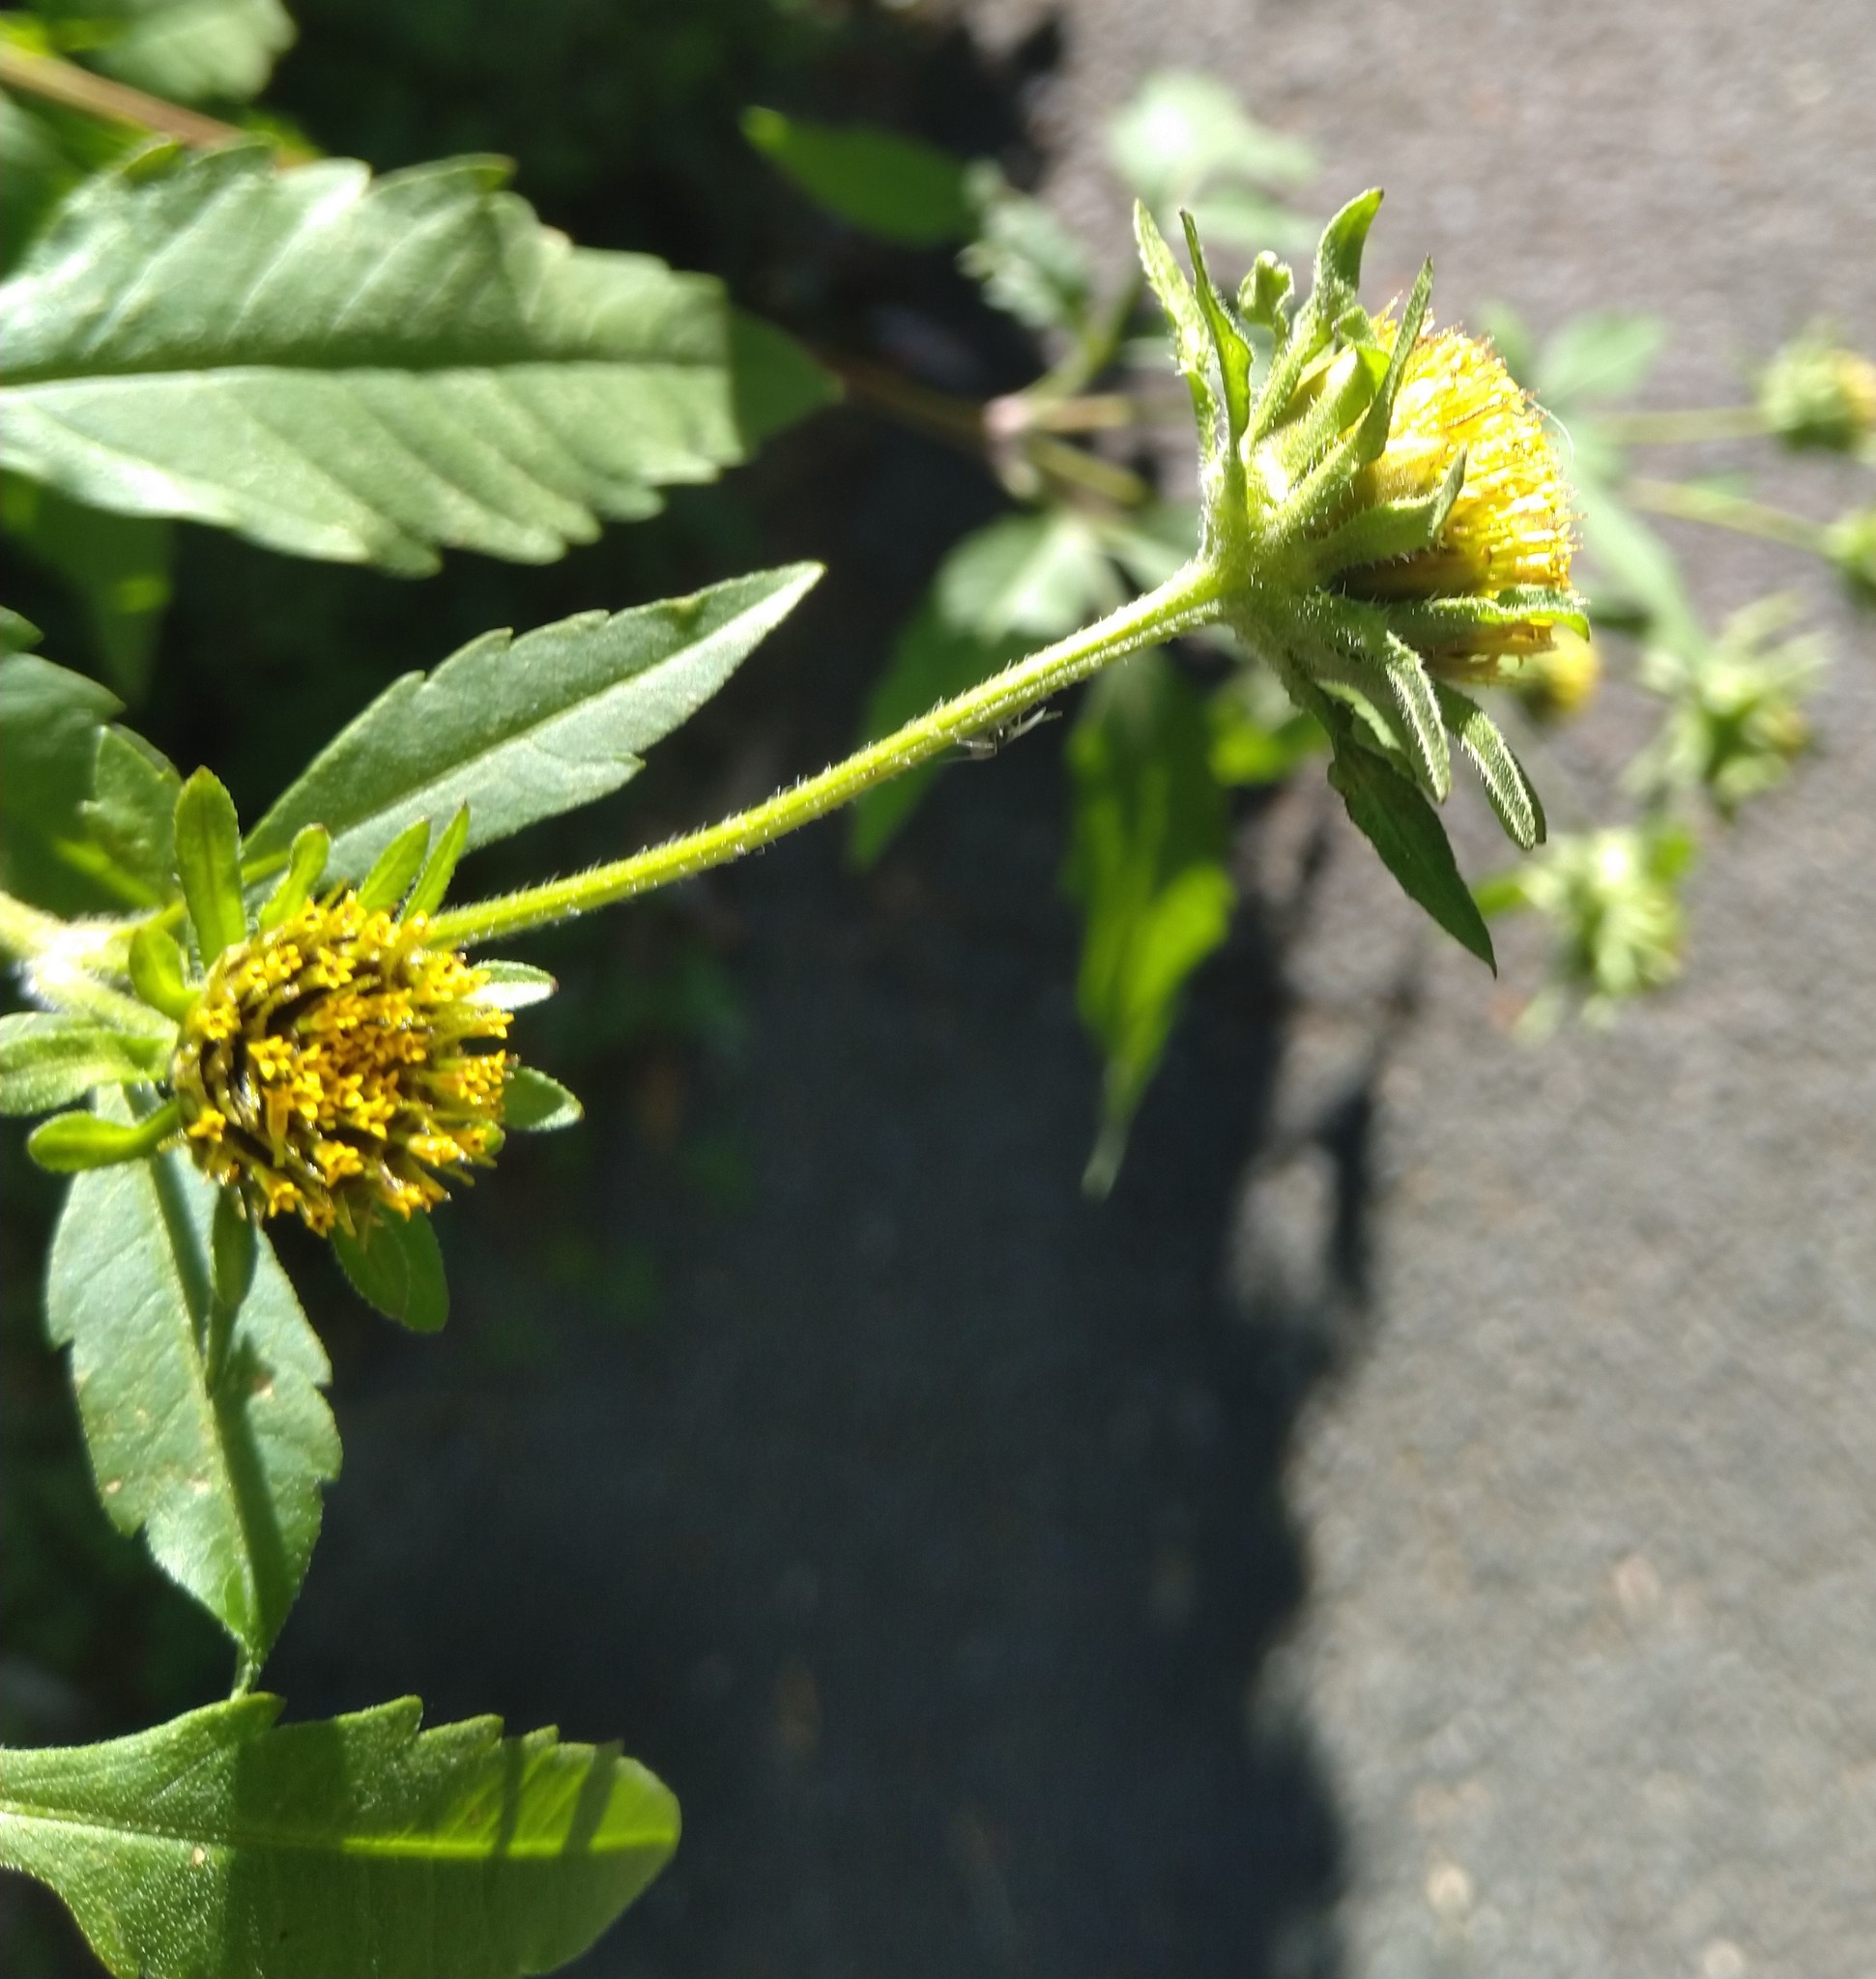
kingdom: Plantae
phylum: Tracheophyta
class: Magnoliopsida
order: Asterales
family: Asteraceae
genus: Bidens
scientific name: Bidens vulgata
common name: Tall beggarticks
